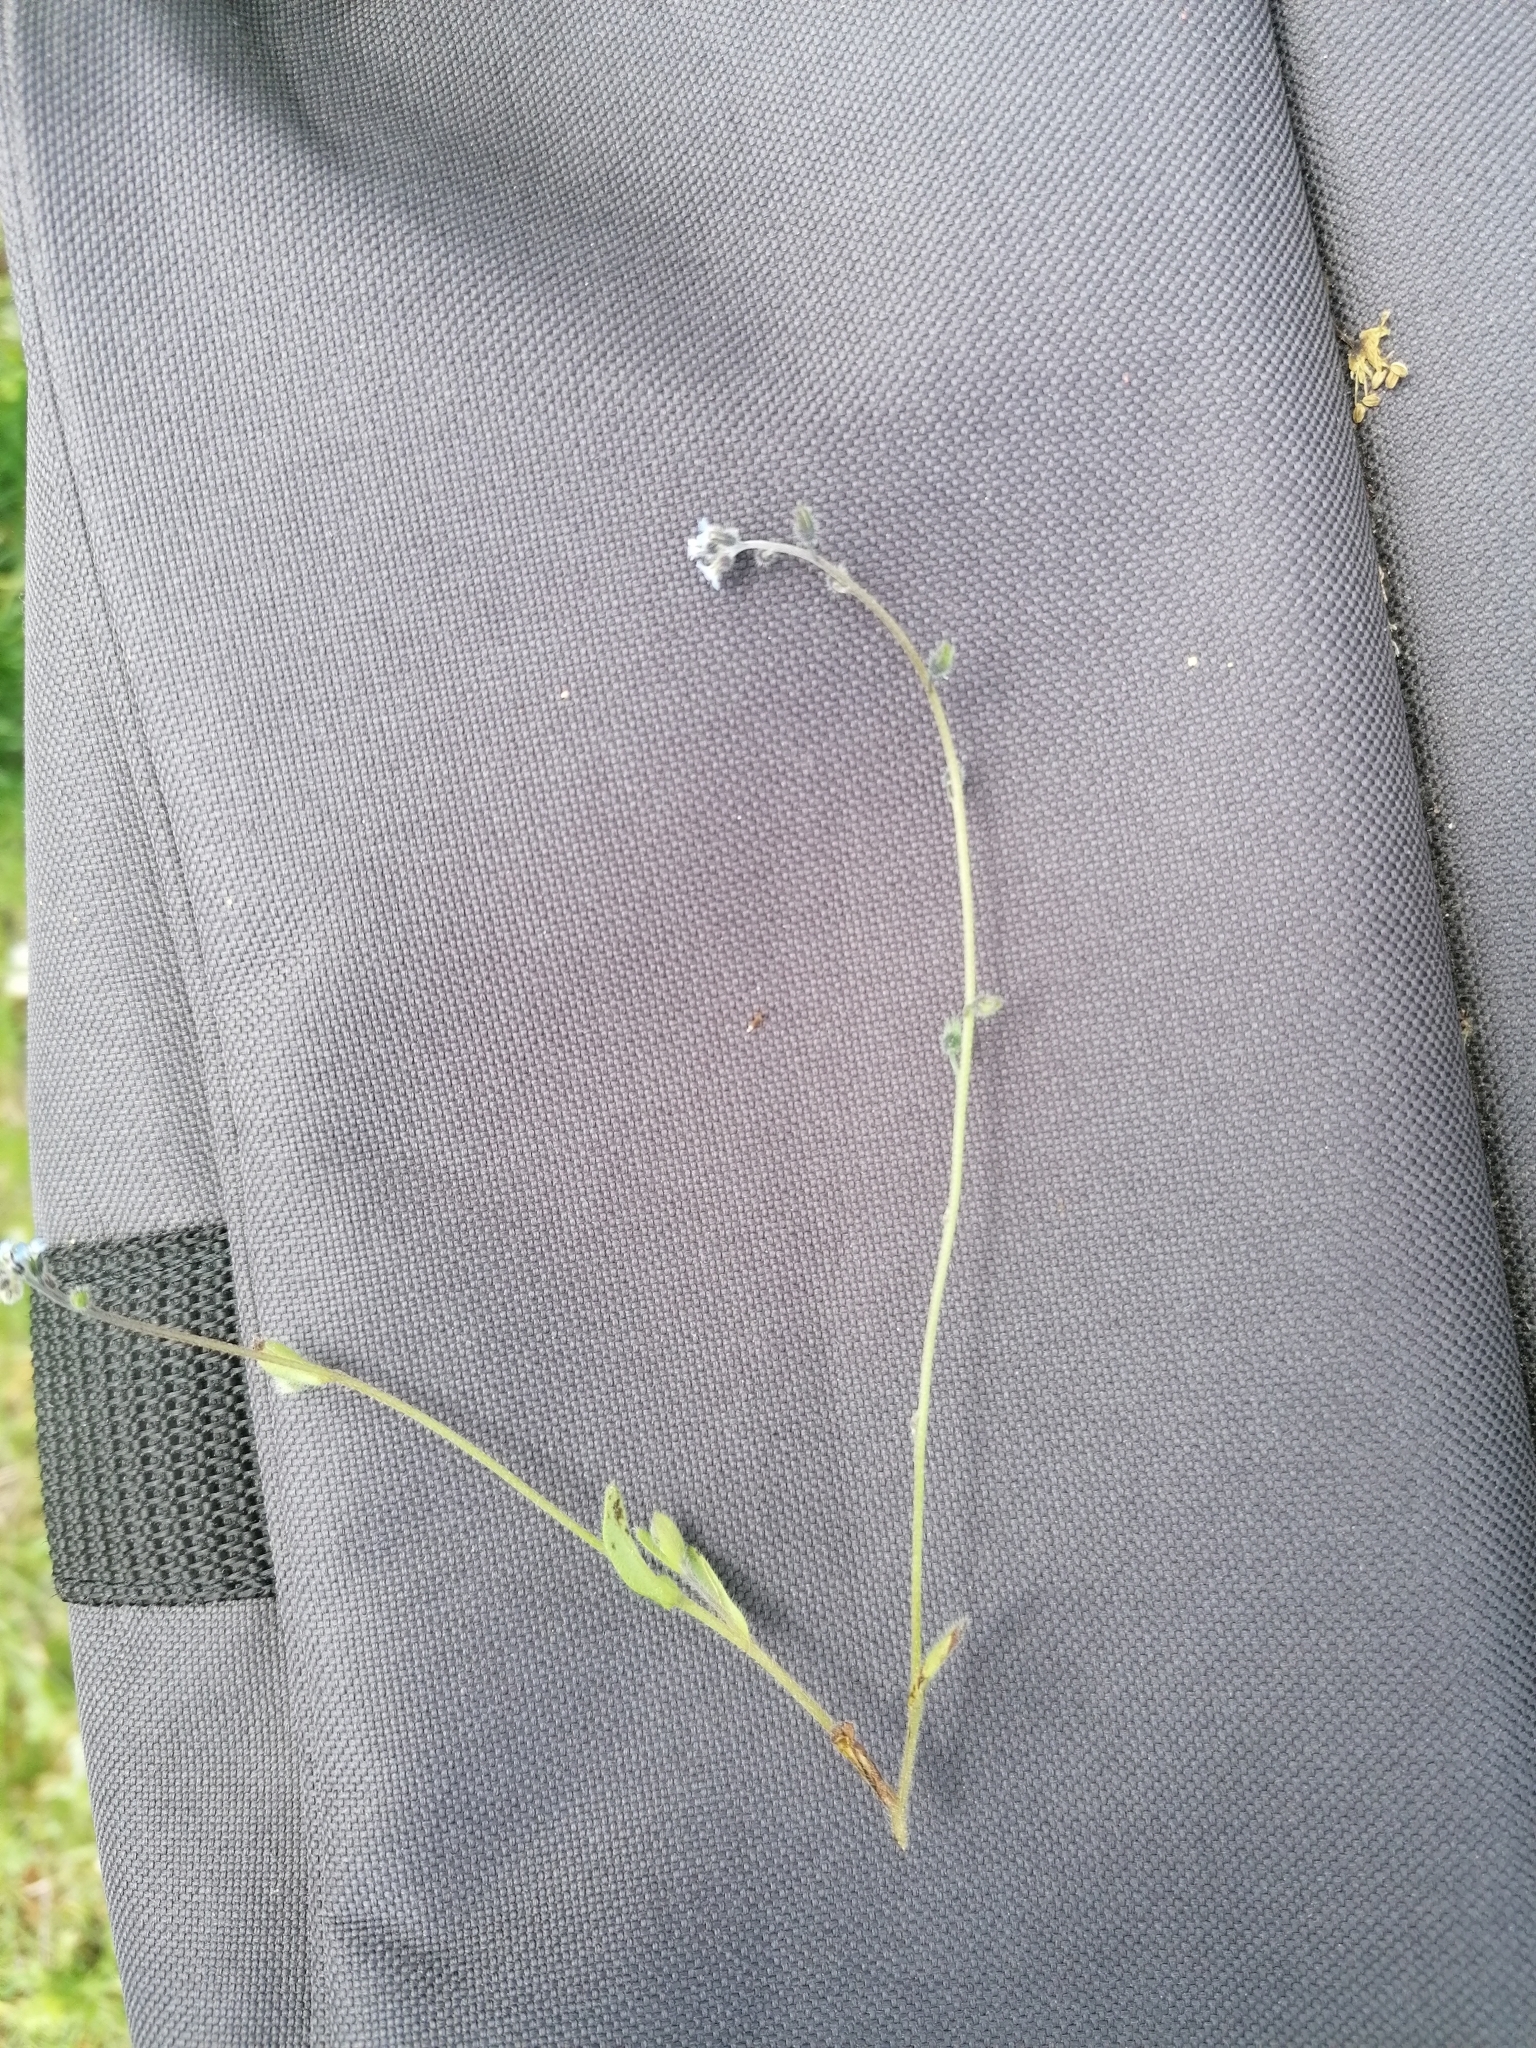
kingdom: Plantae
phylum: Tracheophyta
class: Magnoliopsida
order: Boraginales
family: Boraginaceae
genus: Myosotis
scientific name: Myosotis arvensis
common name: Field forget-me-not
